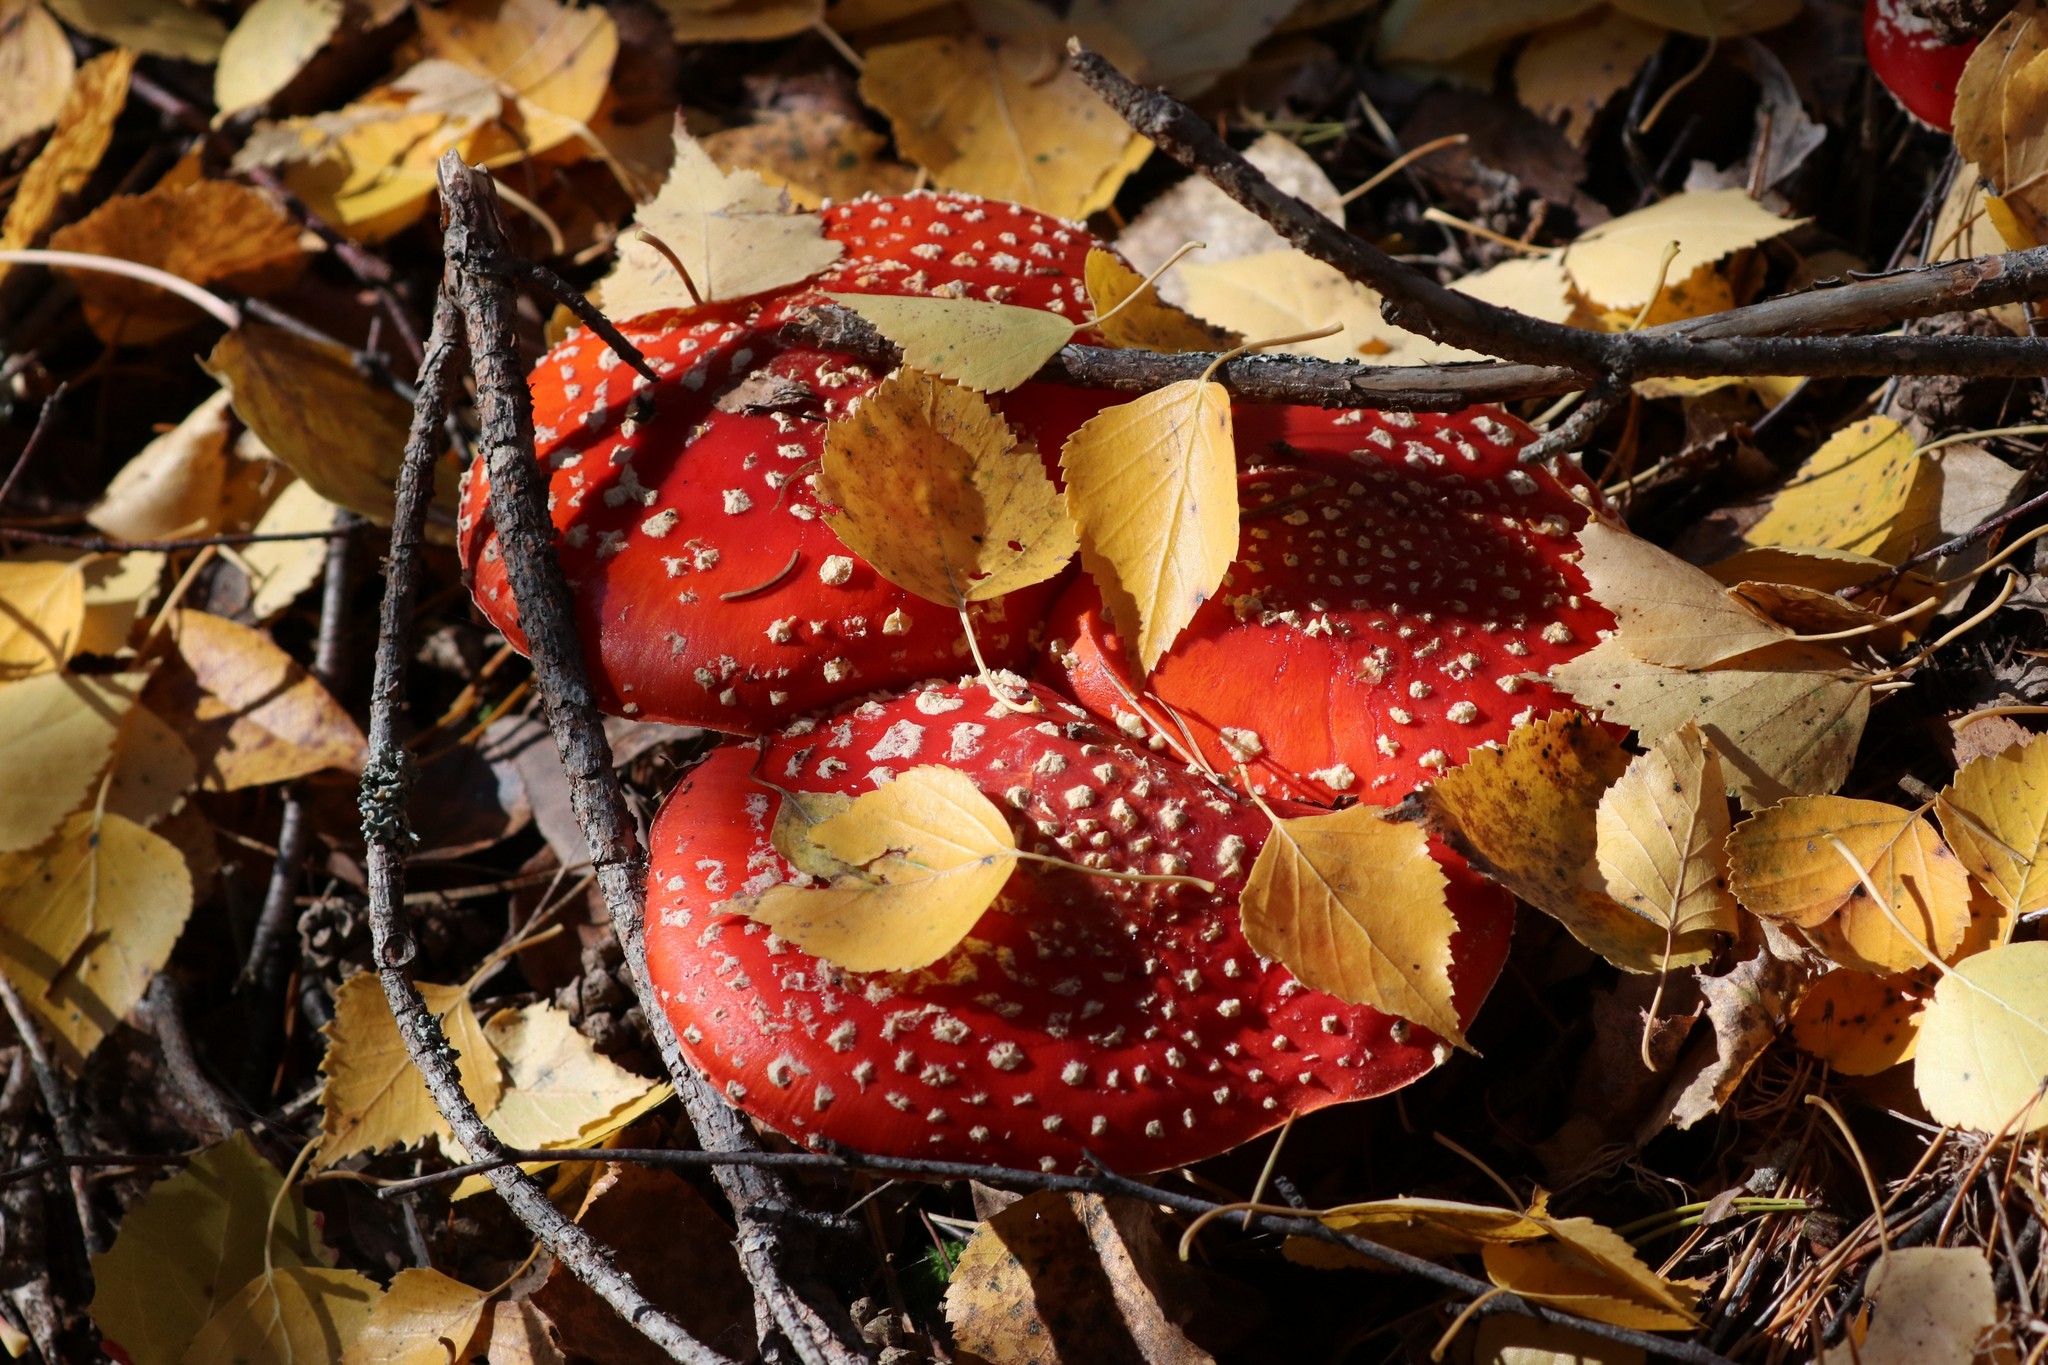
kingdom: Fungi
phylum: Basidiomycota
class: Agaricomycetes
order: Agaricales
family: Amanitaceae
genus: Amanita
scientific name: Amanita muscaria
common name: Fly agaric
